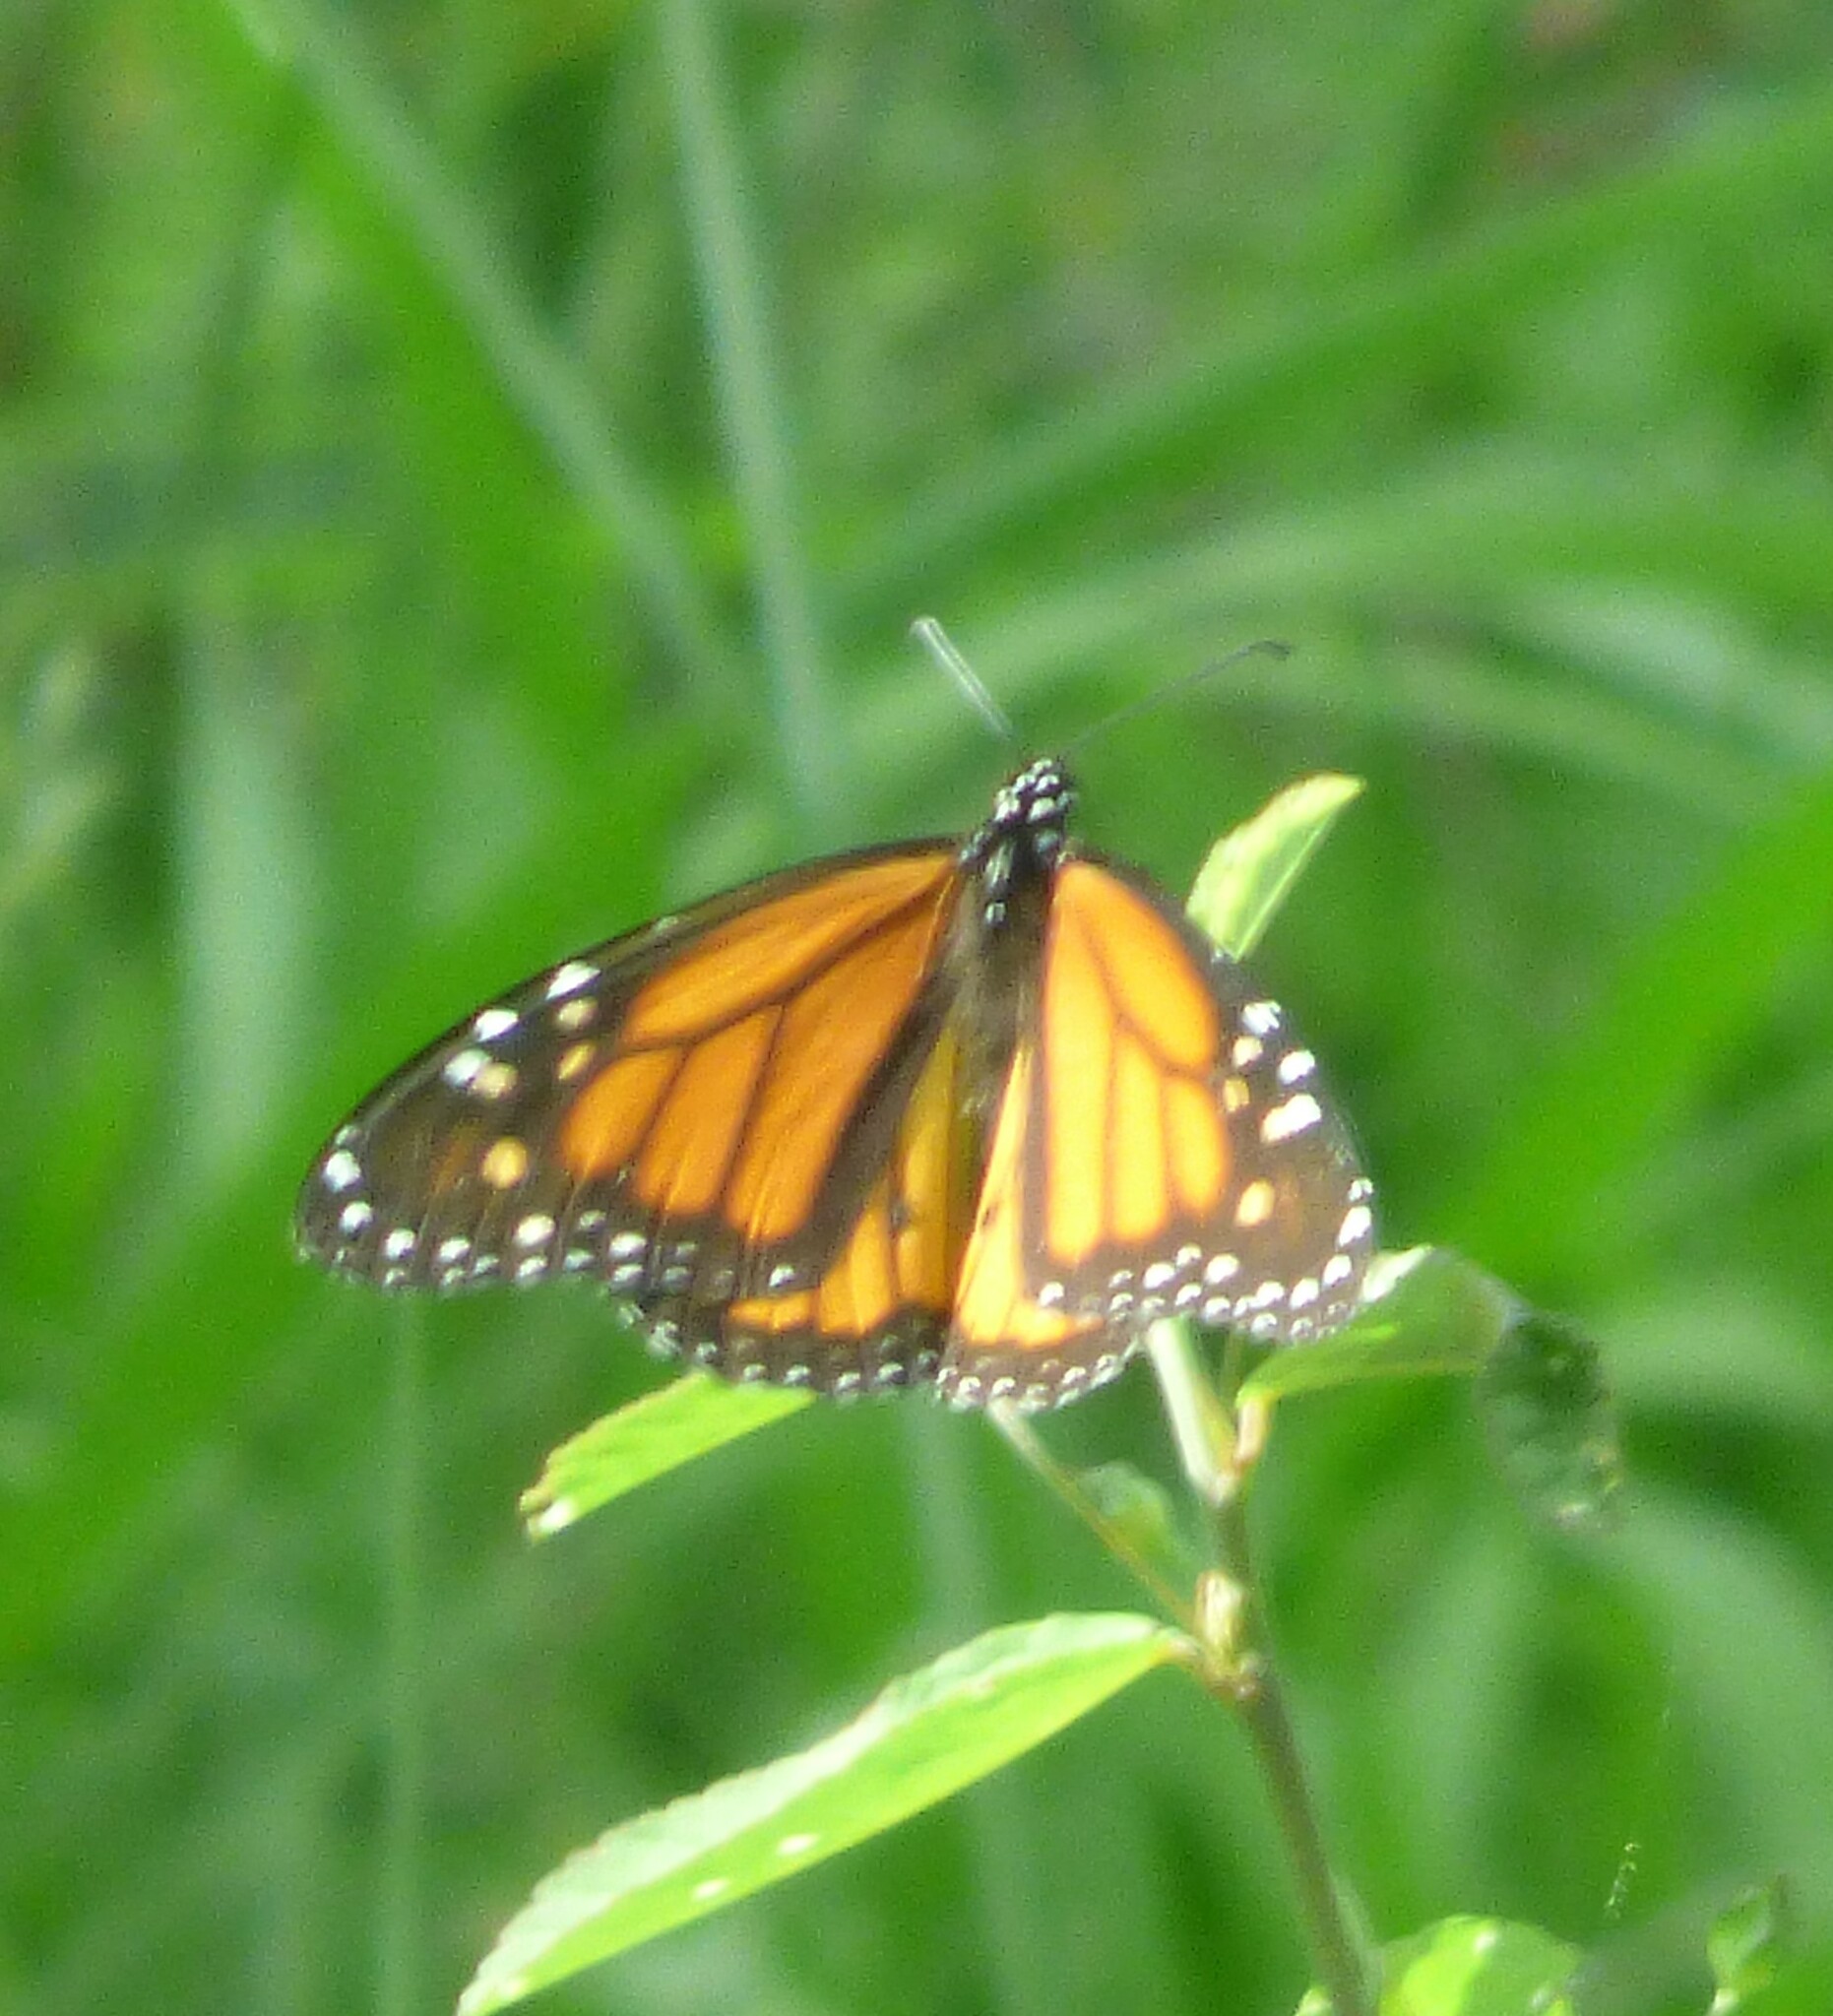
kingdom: Animalia
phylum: Arthropoda
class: Insecta
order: Lepidoptera
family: Nymphalidae
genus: Danaus
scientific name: Danaus plexippus
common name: Monarch
